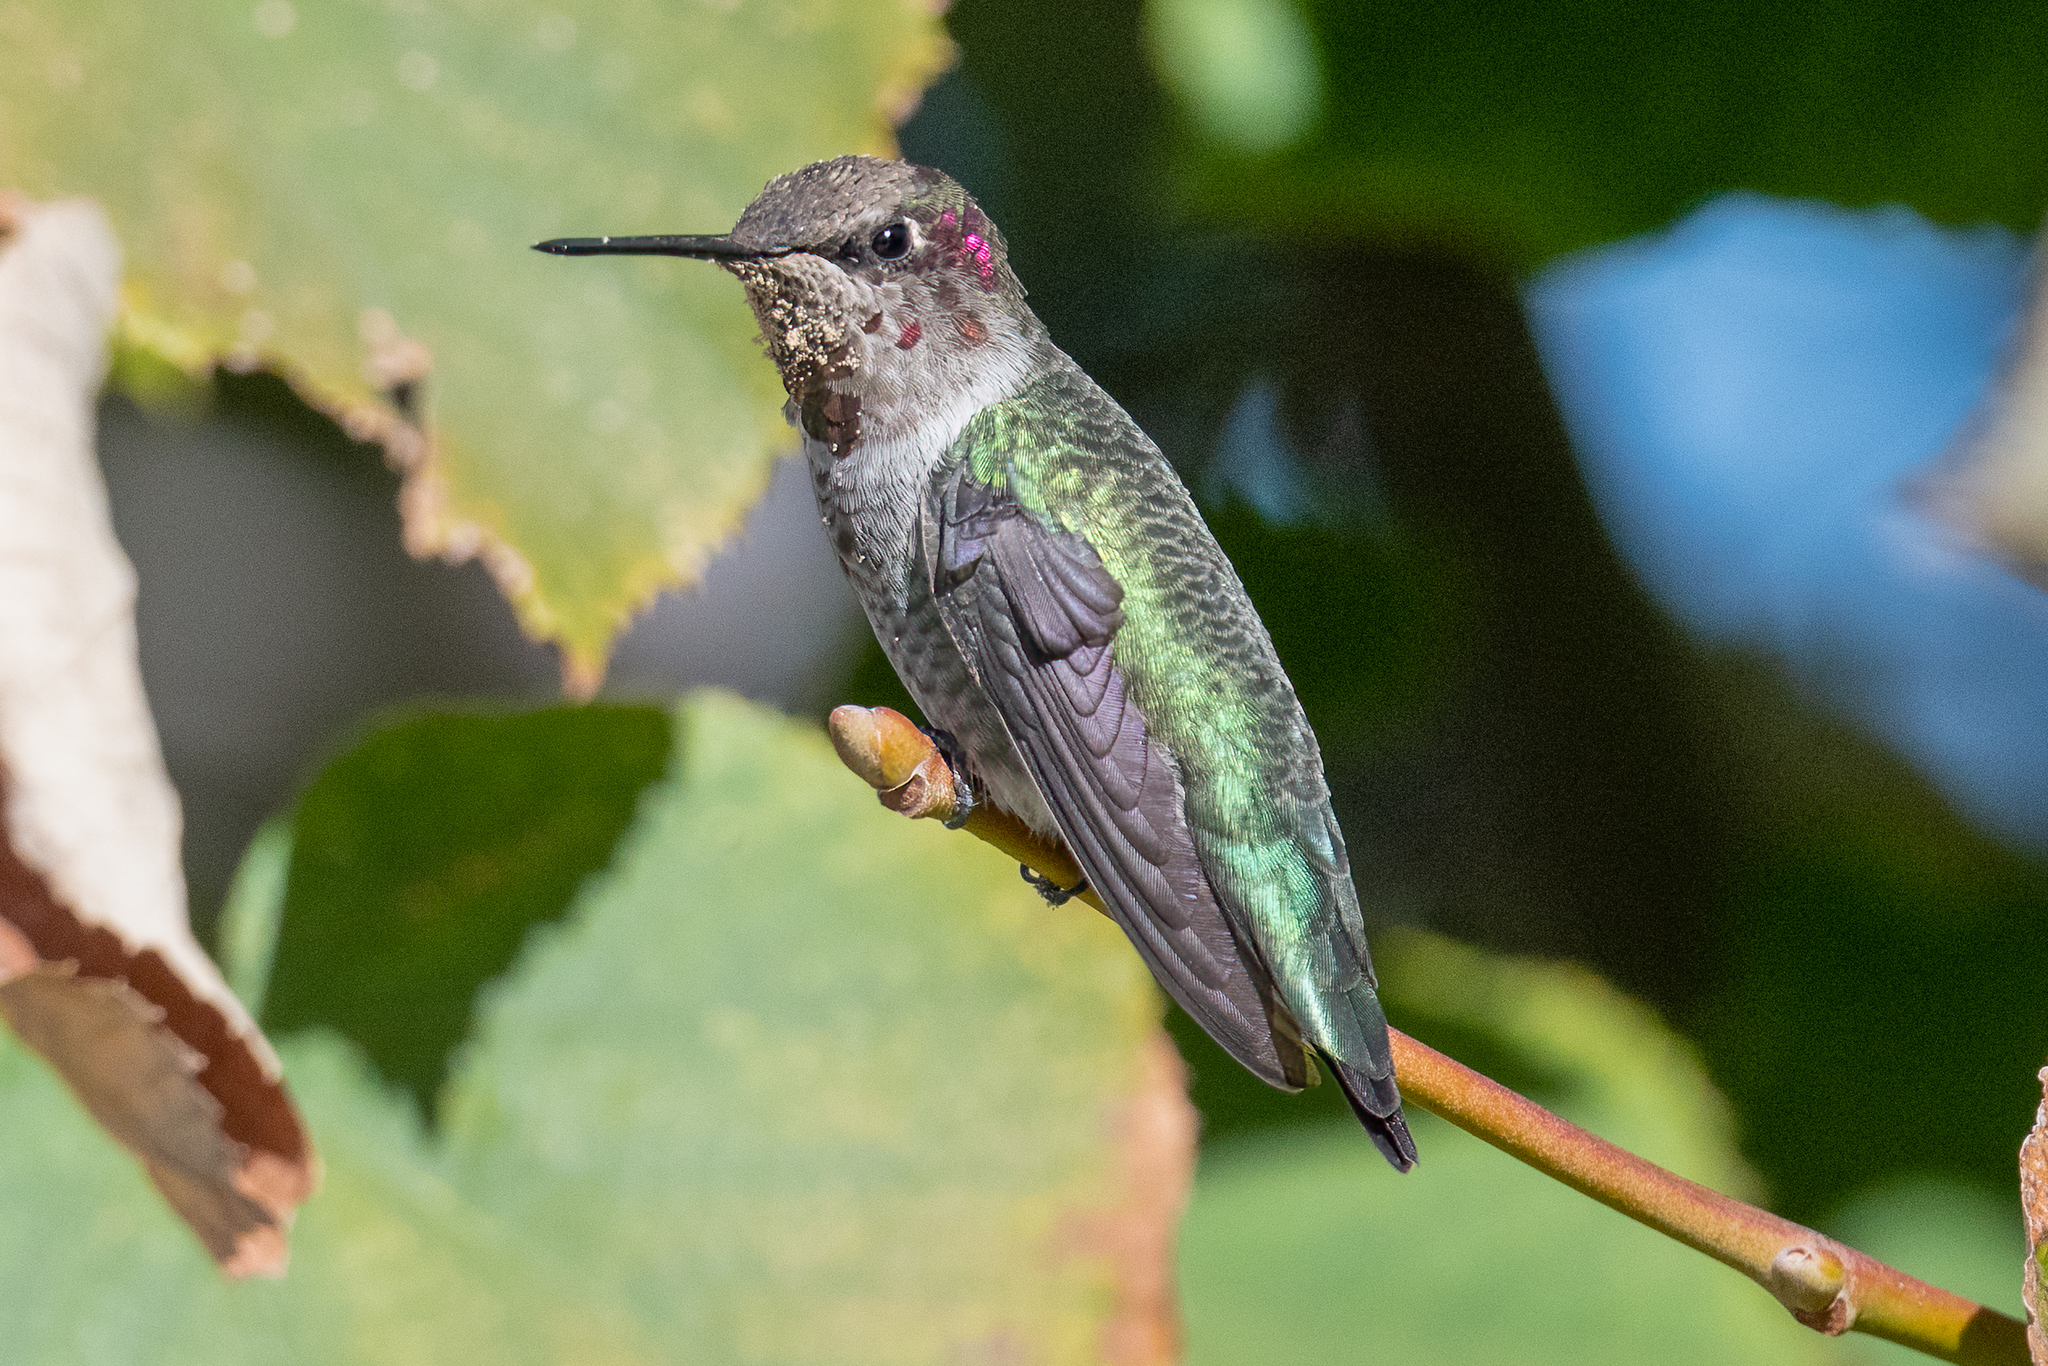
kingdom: Animalia
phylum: Chordata
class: Aves
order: Apodiformes
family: Trochilidae
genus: Calypte
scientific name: Calypte anna
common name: Anna's hummingbird
